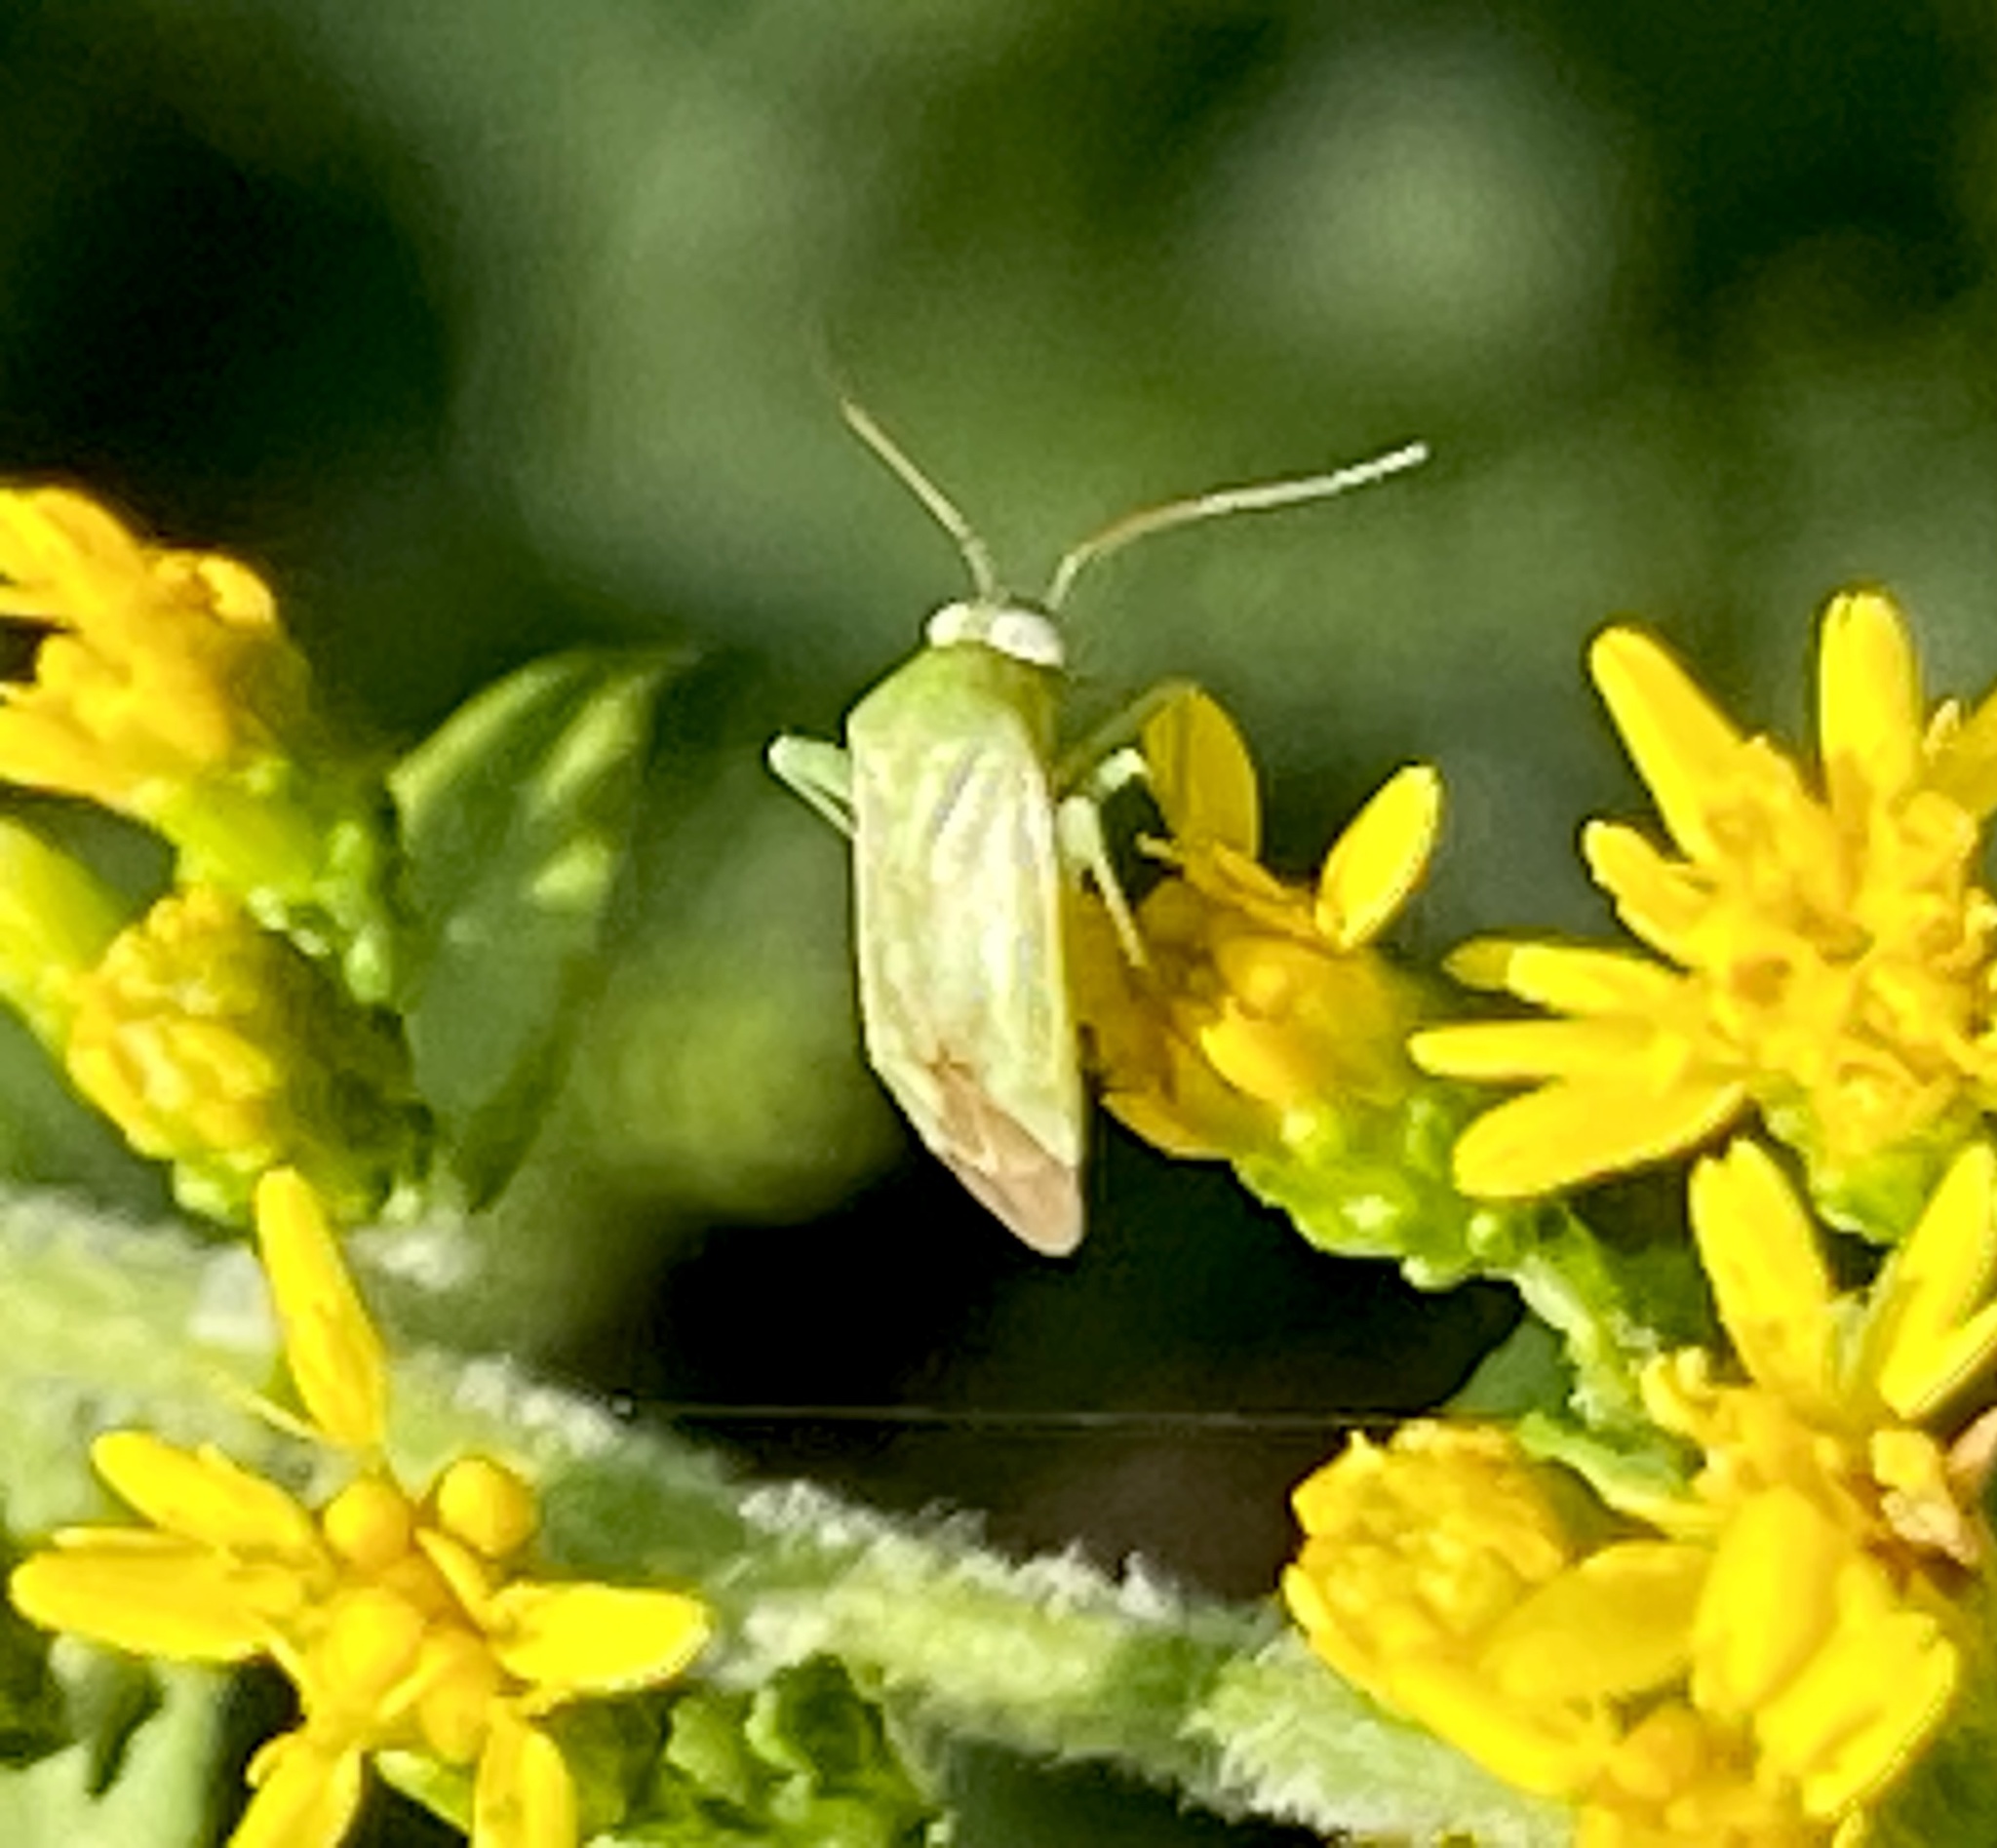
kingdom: Animalia
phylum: Arthropoda
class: Insecta
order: Hemiptera
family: Miridae
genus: Taylorilygus
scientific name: Taylorilygus apicalis
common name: Plant bug
